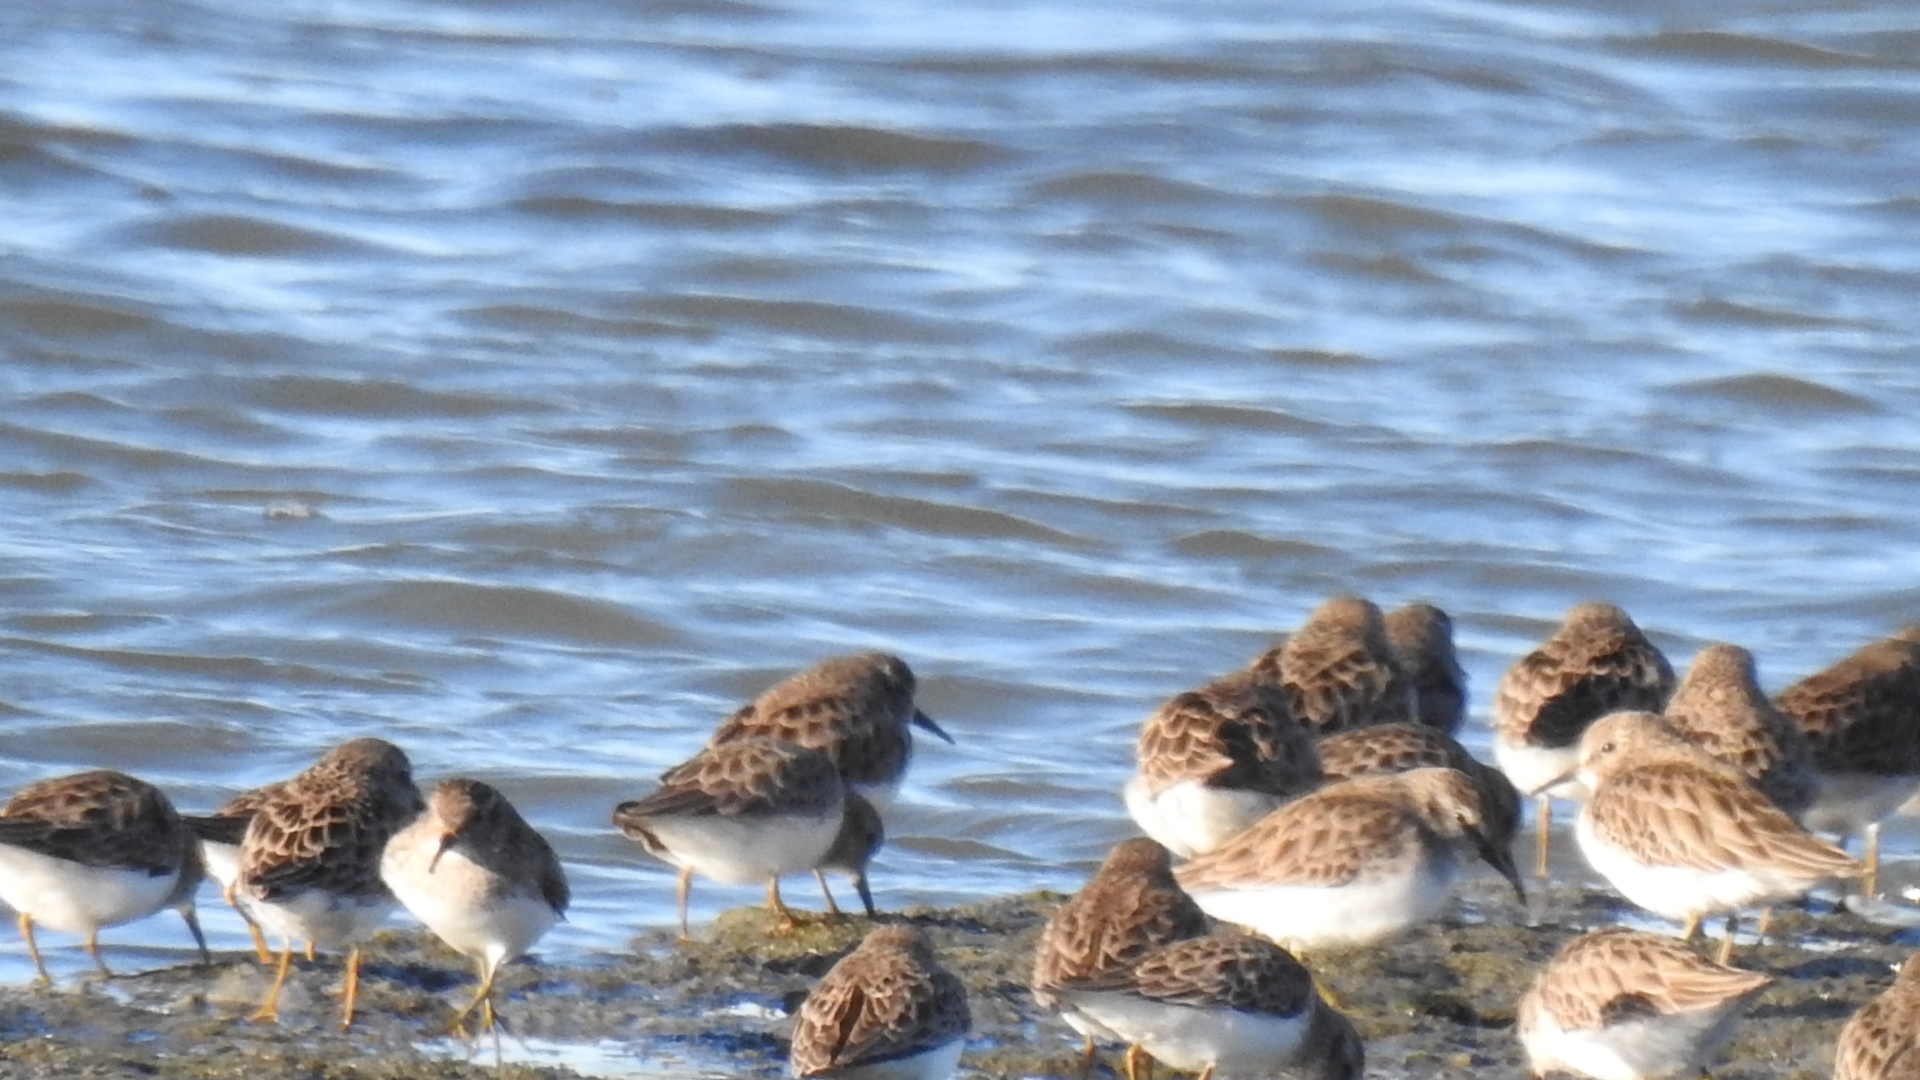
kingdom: Animalia
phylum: Chordata
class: Aves
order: Charadriiformes
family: Scolopacidae
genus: Calidris
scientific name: Calidris minutilla
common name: Least sandpiper
